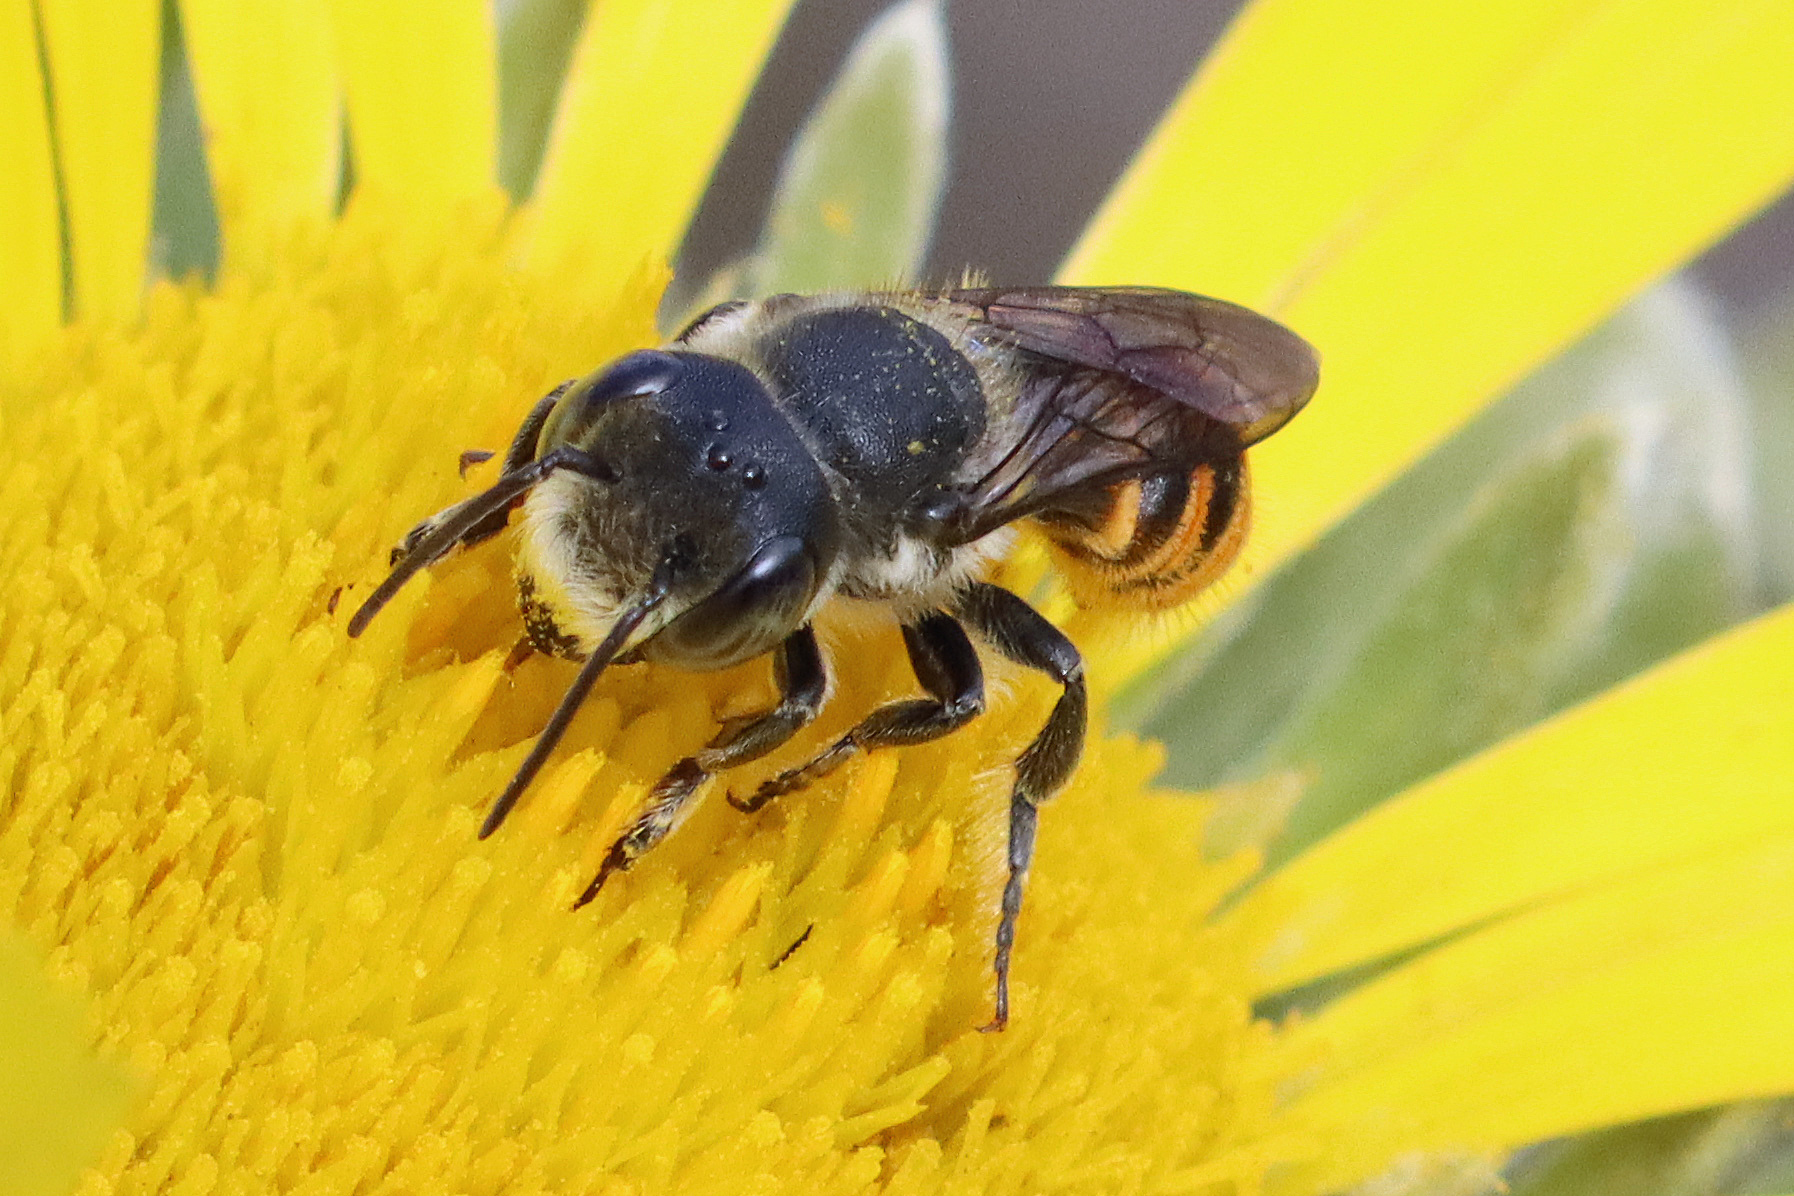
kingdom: Animalia
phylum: Arthropoda
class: Insecta
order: Hymenoptera
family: Megachilidae
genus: Megachile
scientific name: Megachile otomita
